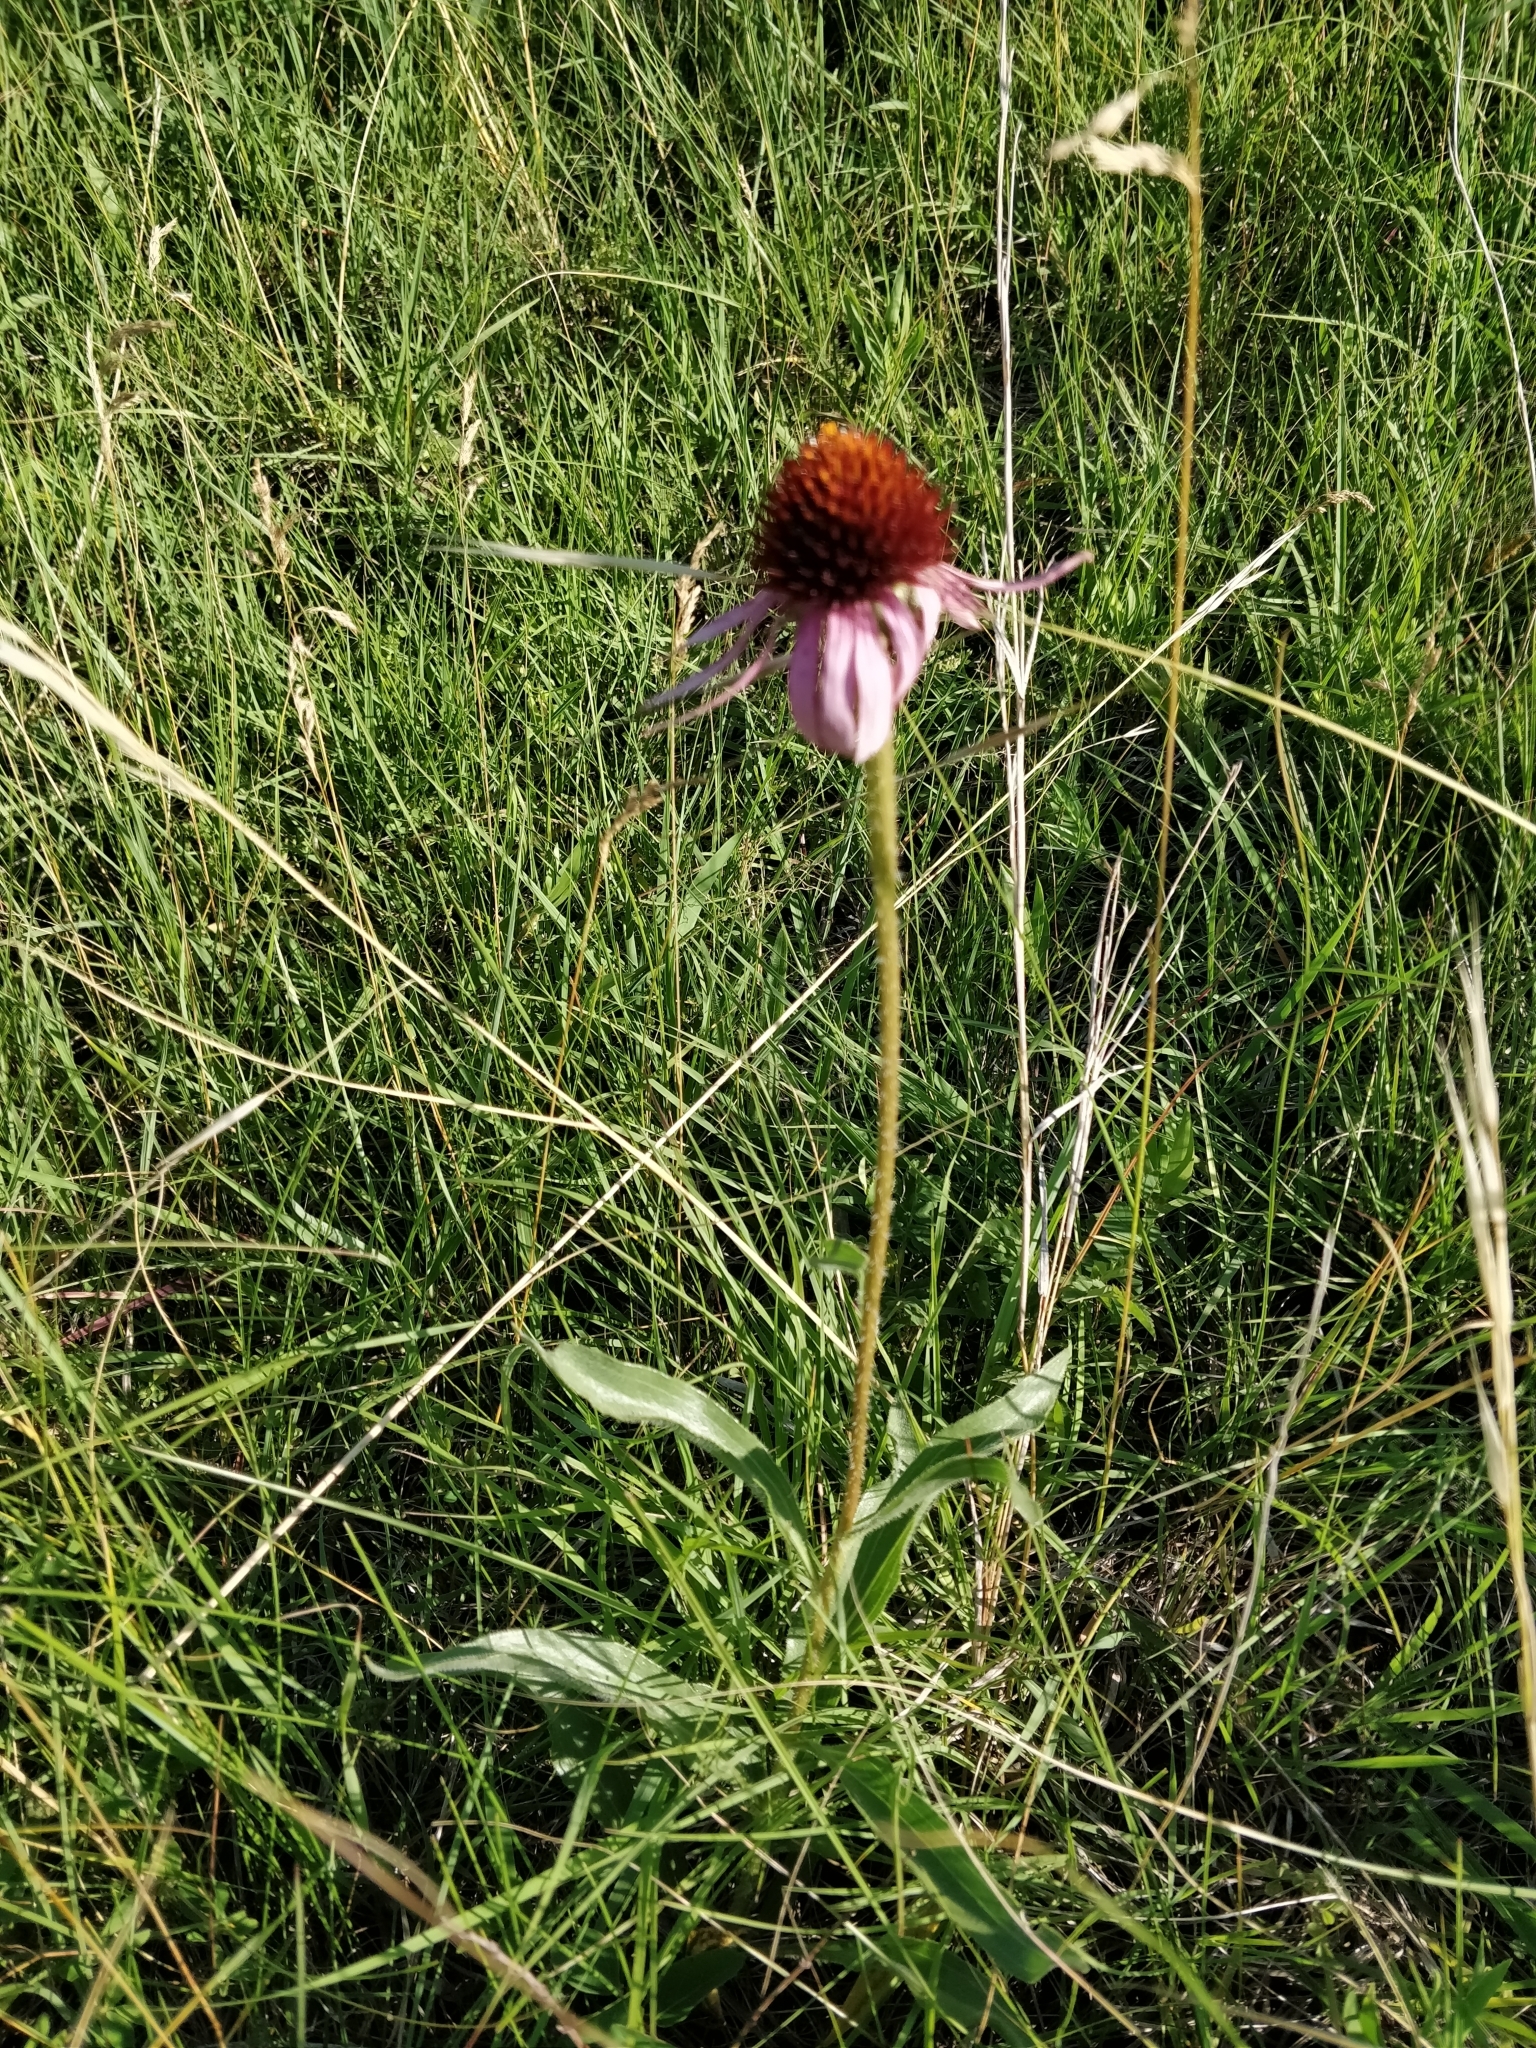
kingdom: Plantae
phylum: Tracheophyta
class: Magnoliopsida
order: Asterales
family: Asteraceae
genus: Echinacea
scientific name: Echinacea angustifolia
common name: Black-sampson echinacea
